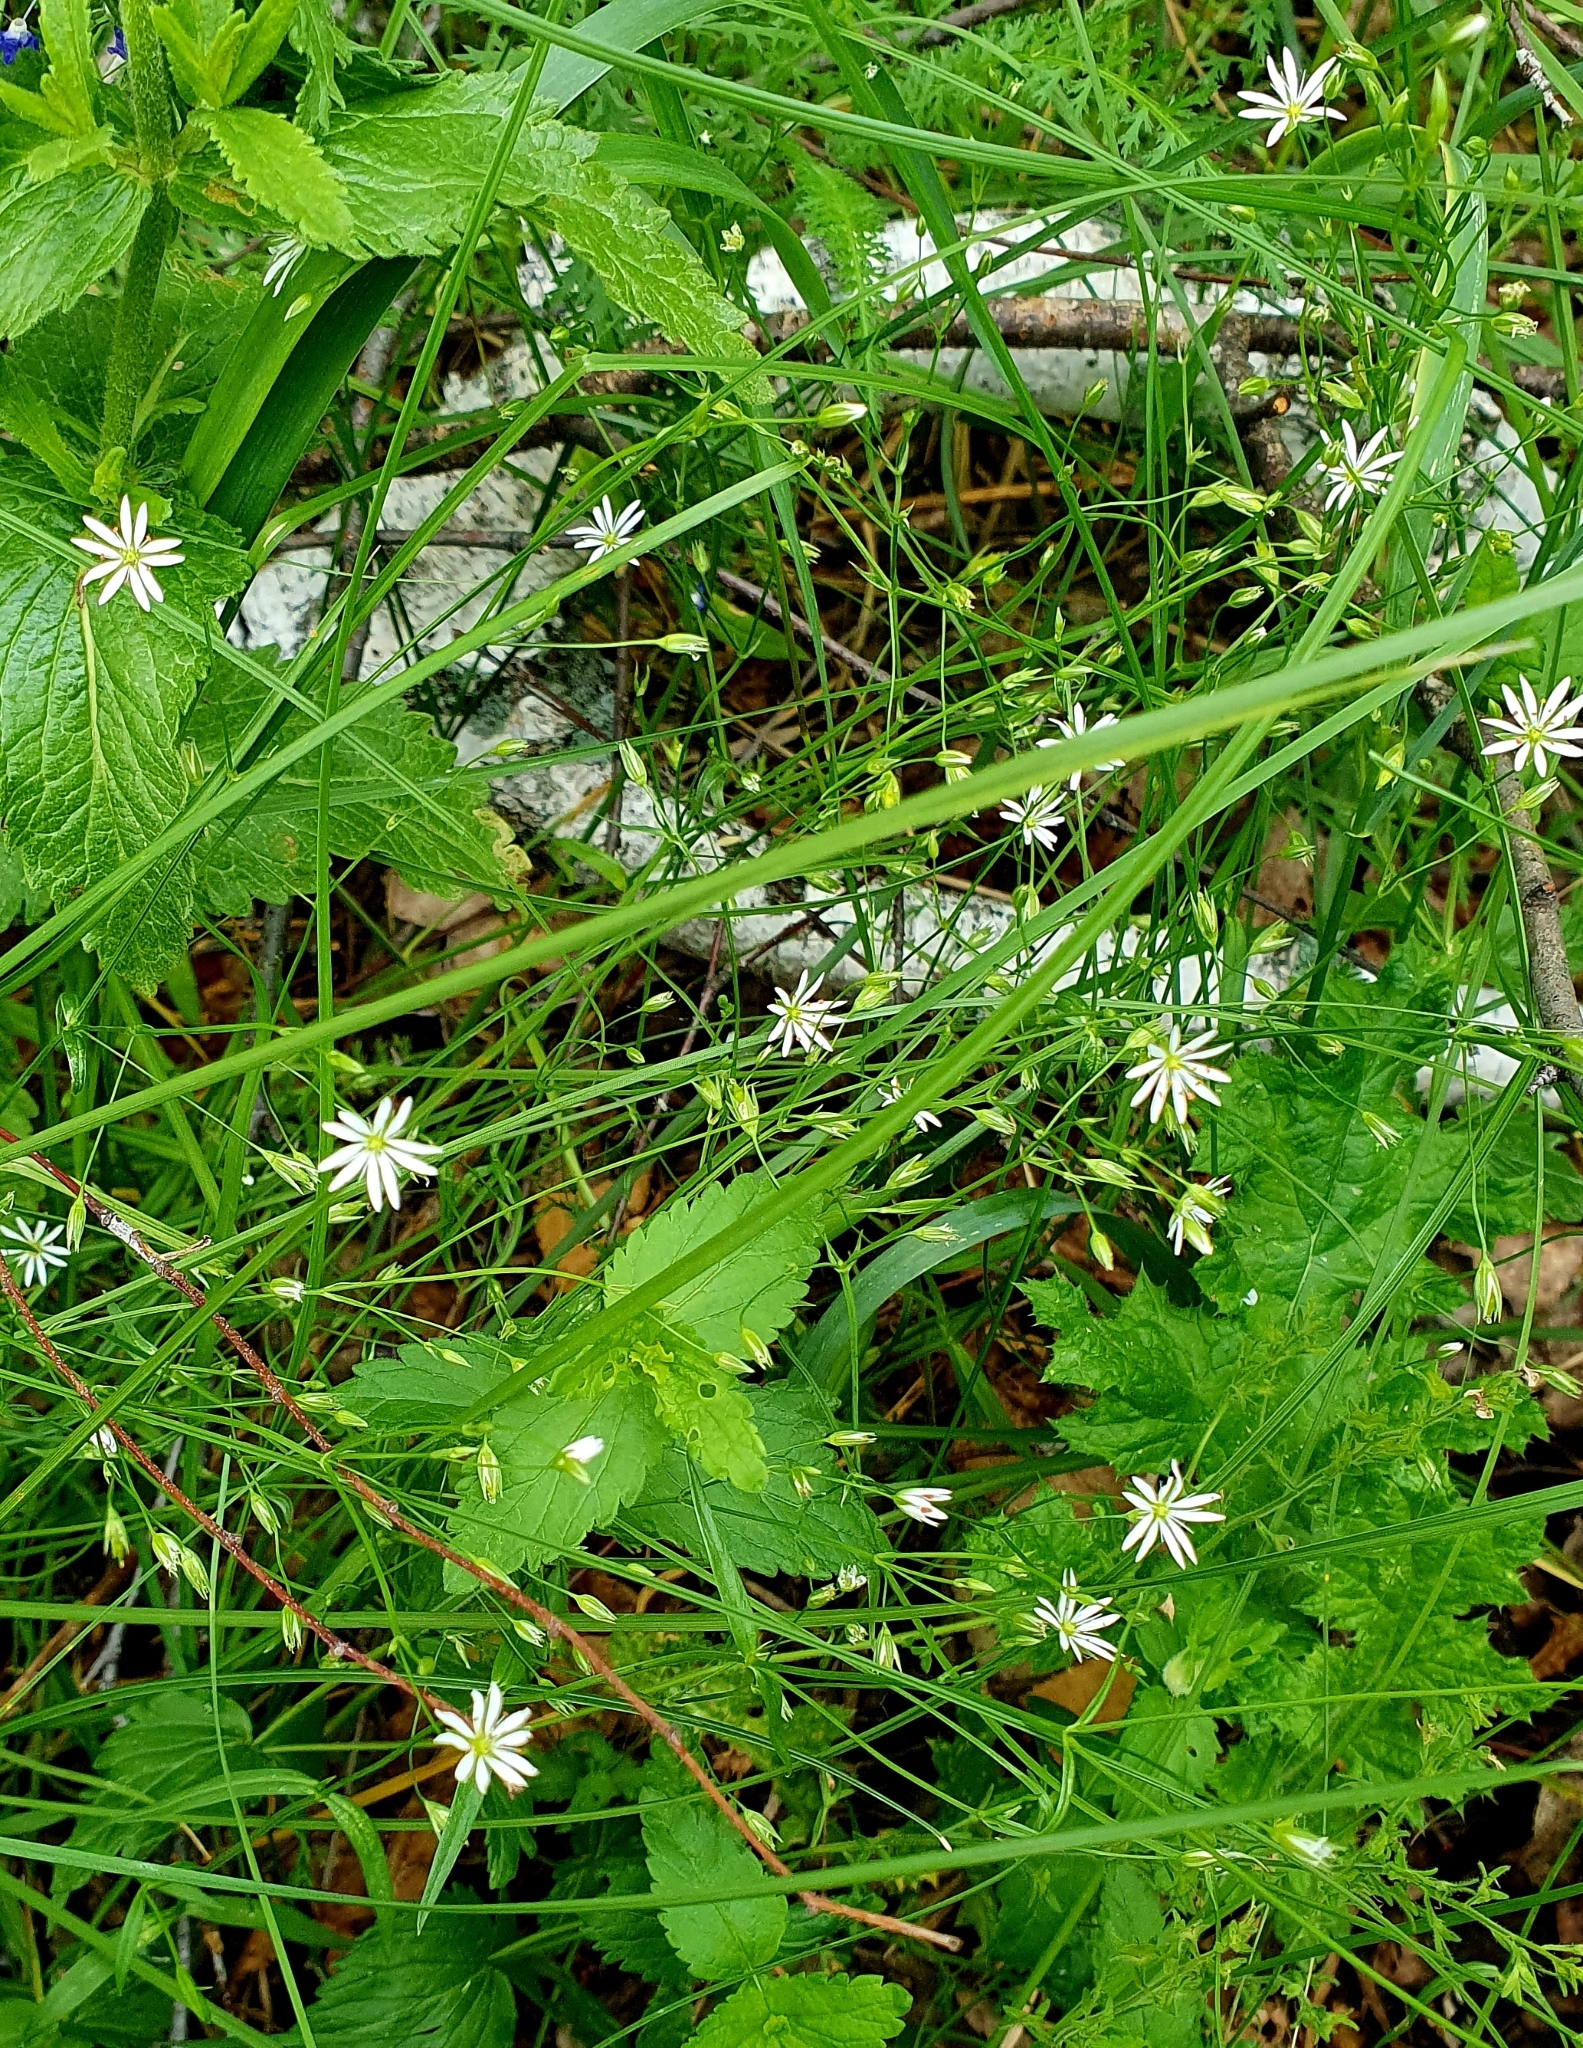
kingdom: Plantae
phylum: Tracheophyta
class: Magnoliopsida
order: Caryophyllales
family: Caryophyllaceae
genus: Stellaria
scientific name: Stellaria graminea
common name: Grass-like starwort
